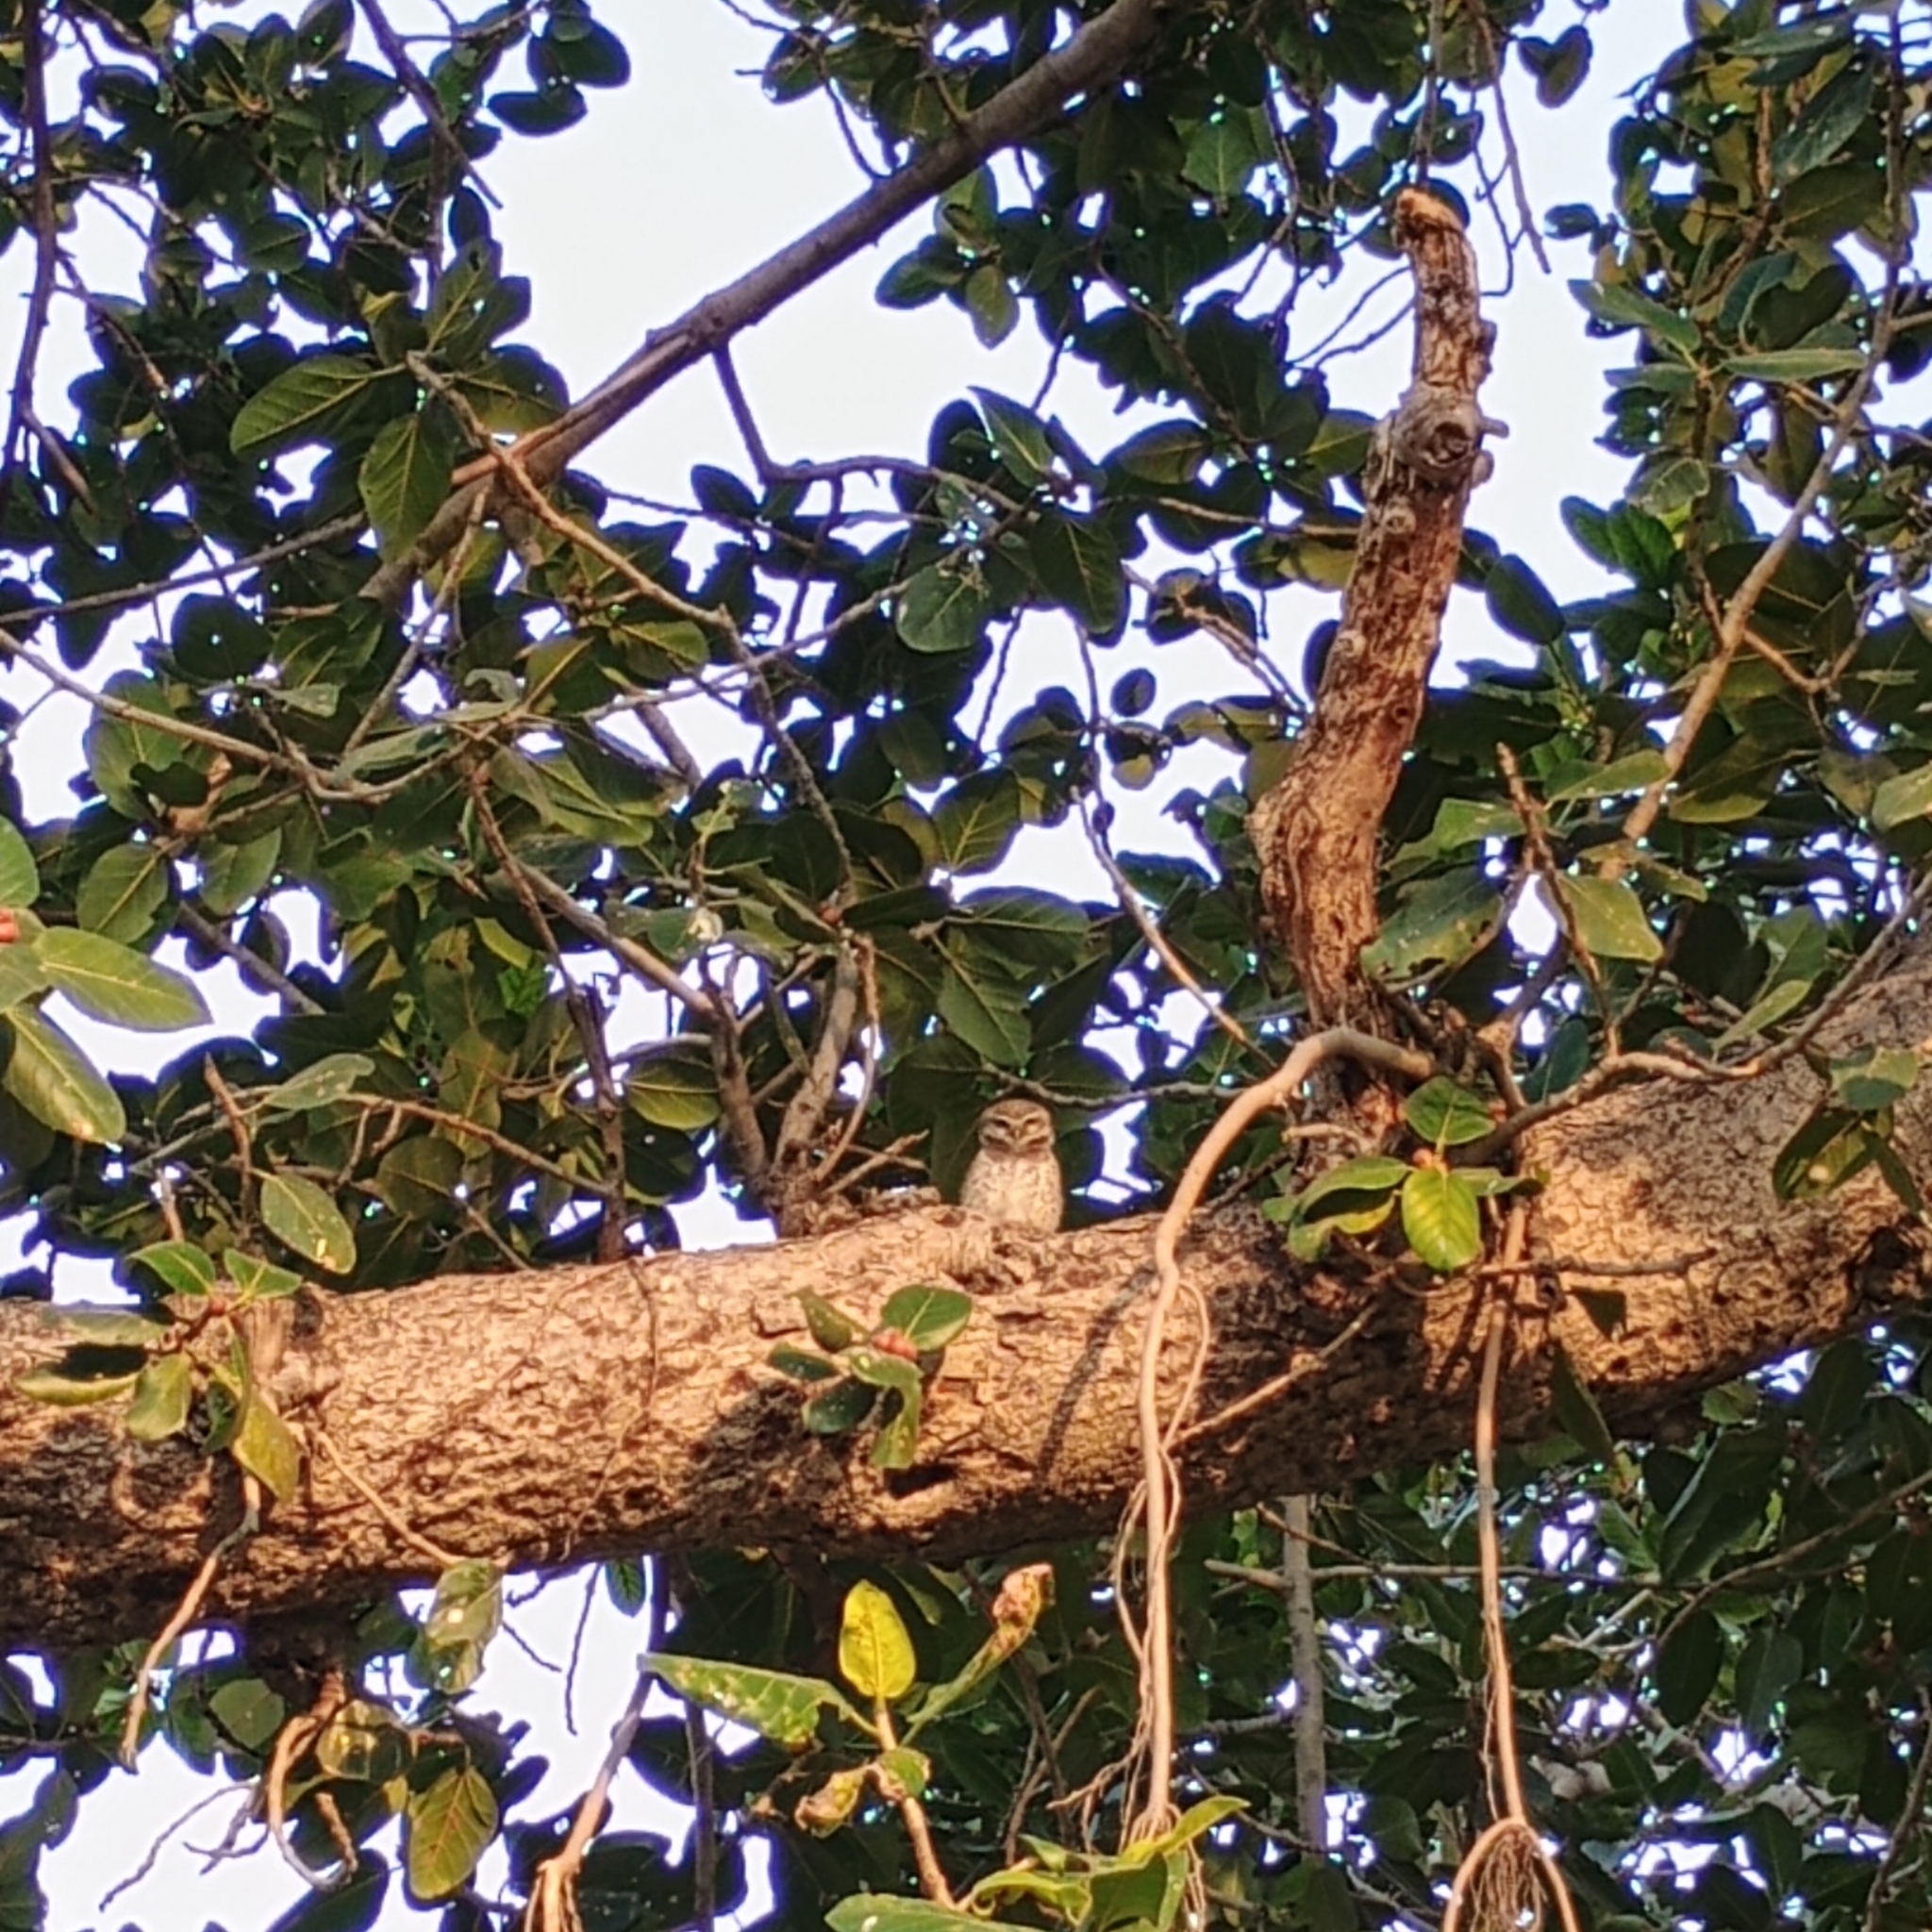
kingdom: Animalia
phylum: Chordata
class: Aves
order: Strigiformes
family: Strigidae
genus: Athene
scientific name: Athene brama
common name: Spotted owlet
